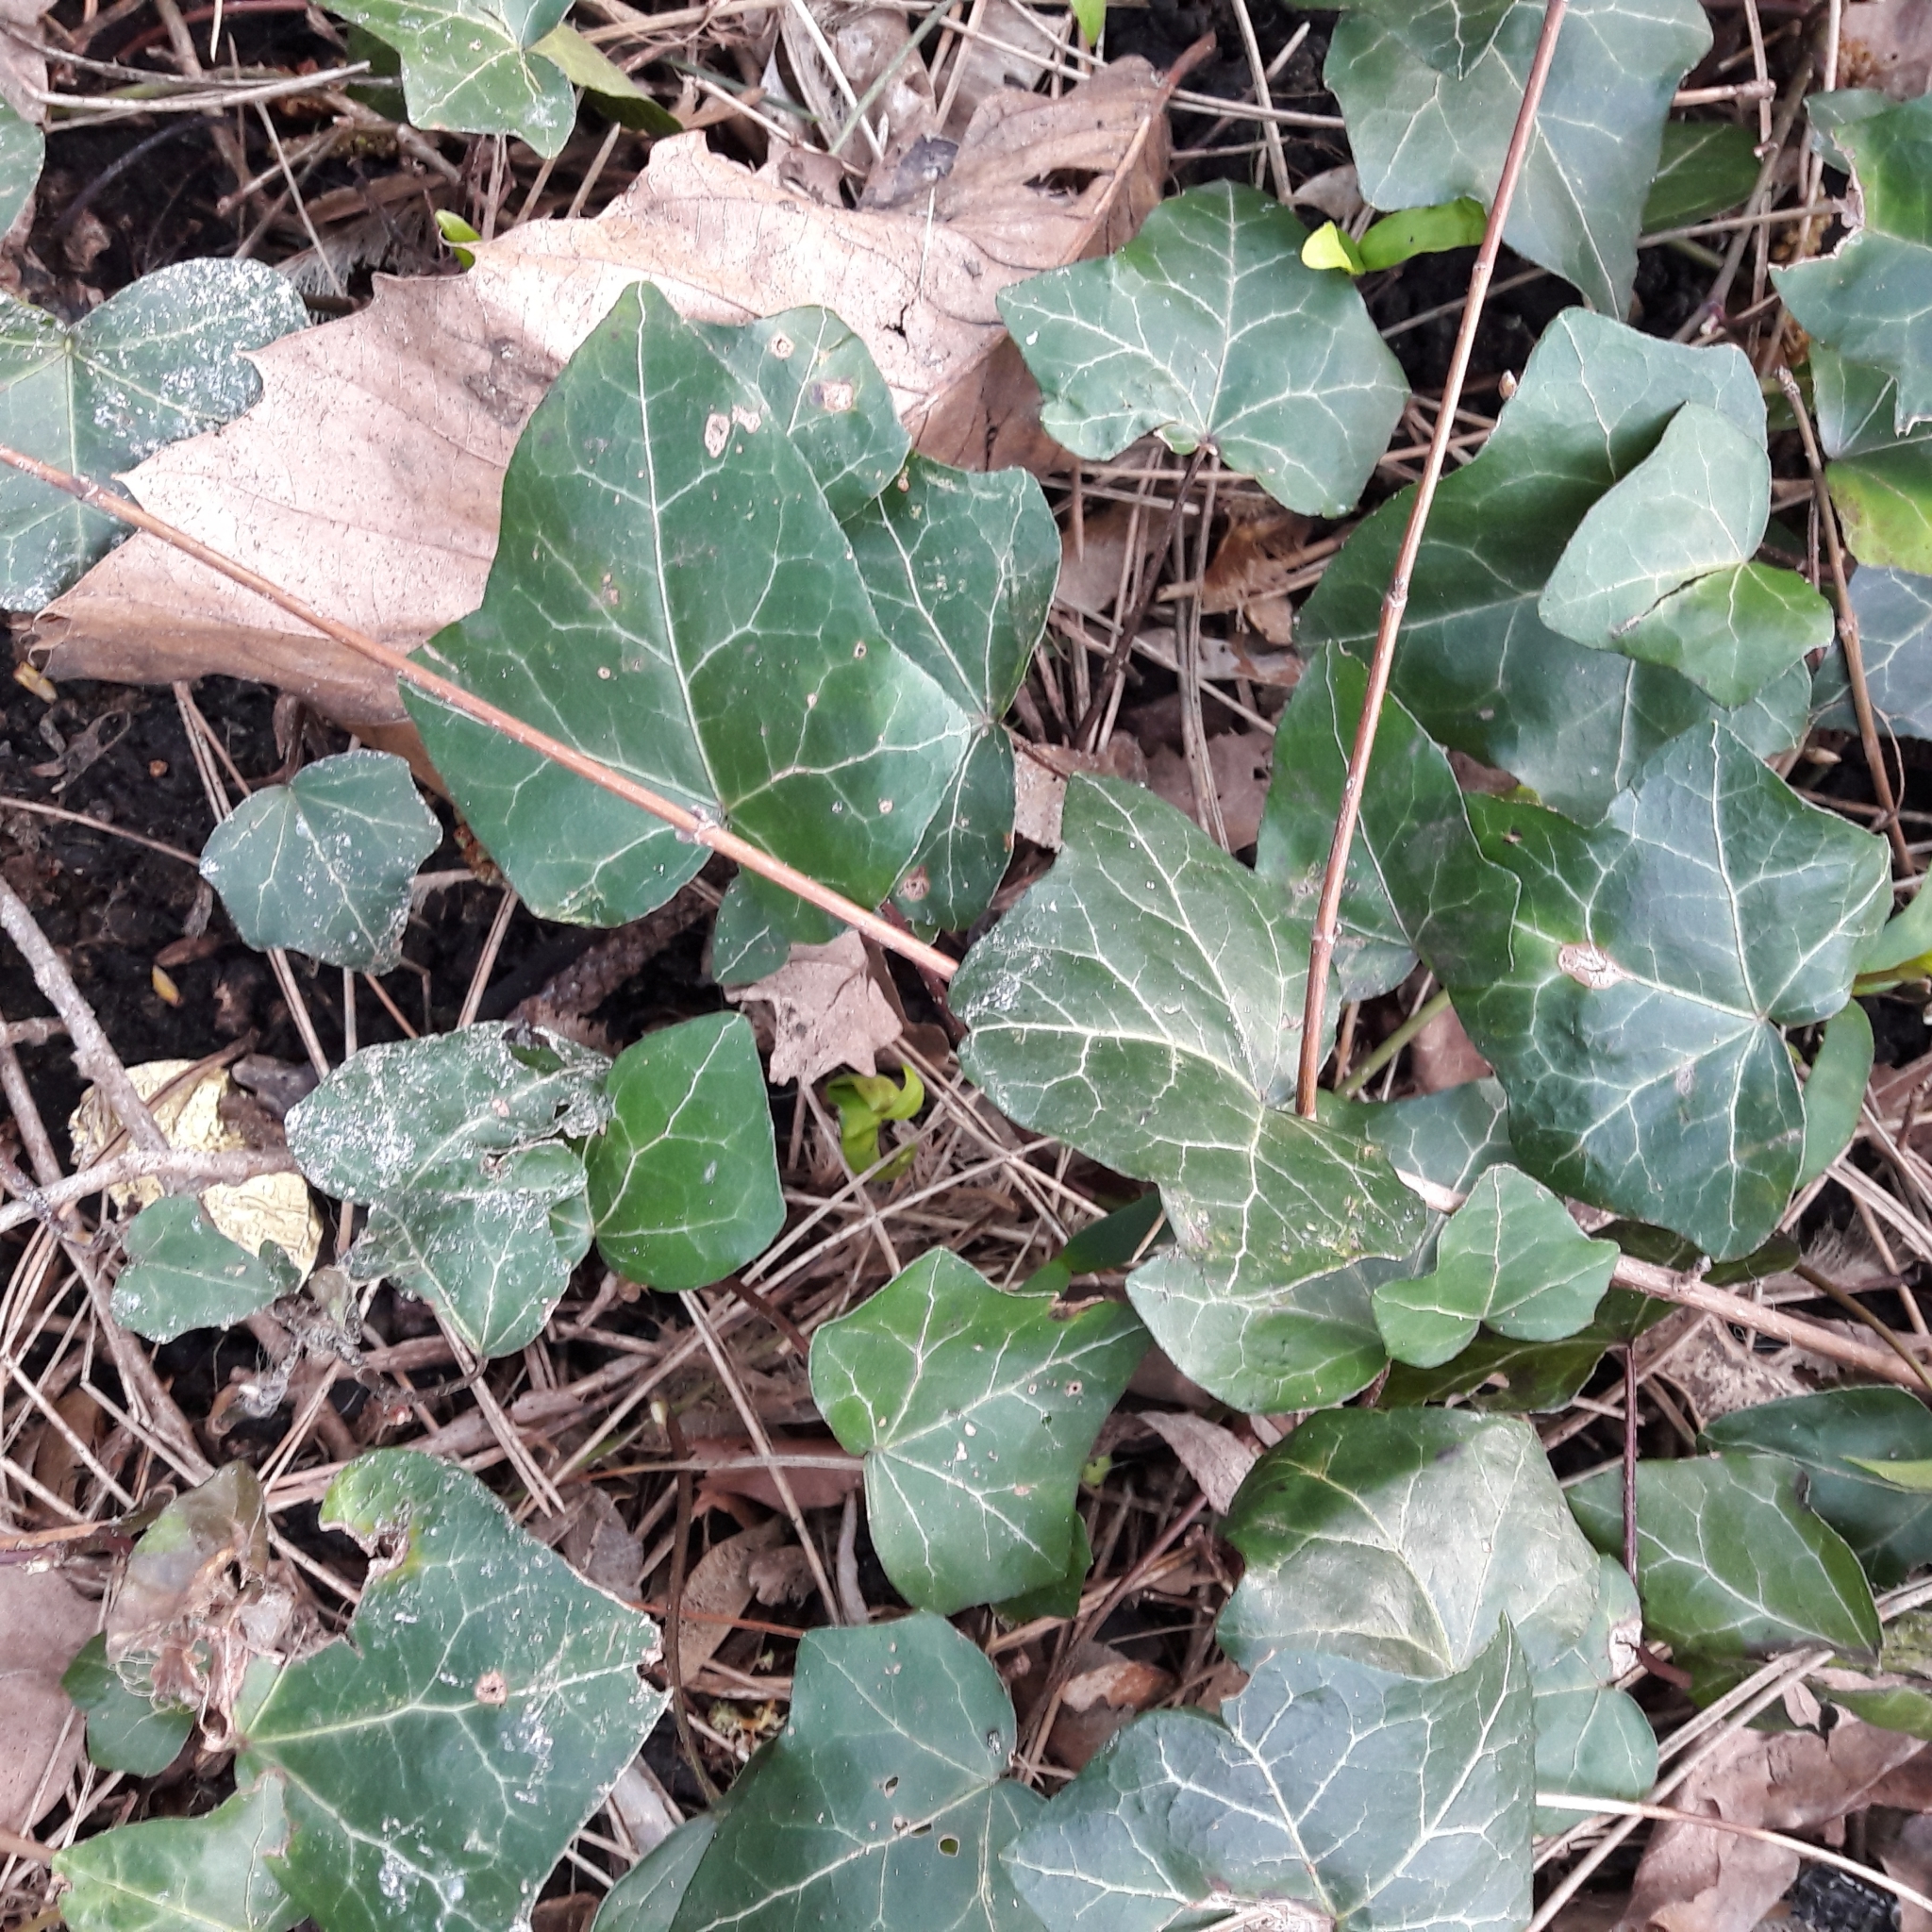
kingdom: Plantae
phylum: Tracheophyta
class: Magnoliopsida
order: Apiales
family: Araliaceae
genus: Hedera
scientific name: Hedera helix
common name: Ivy
